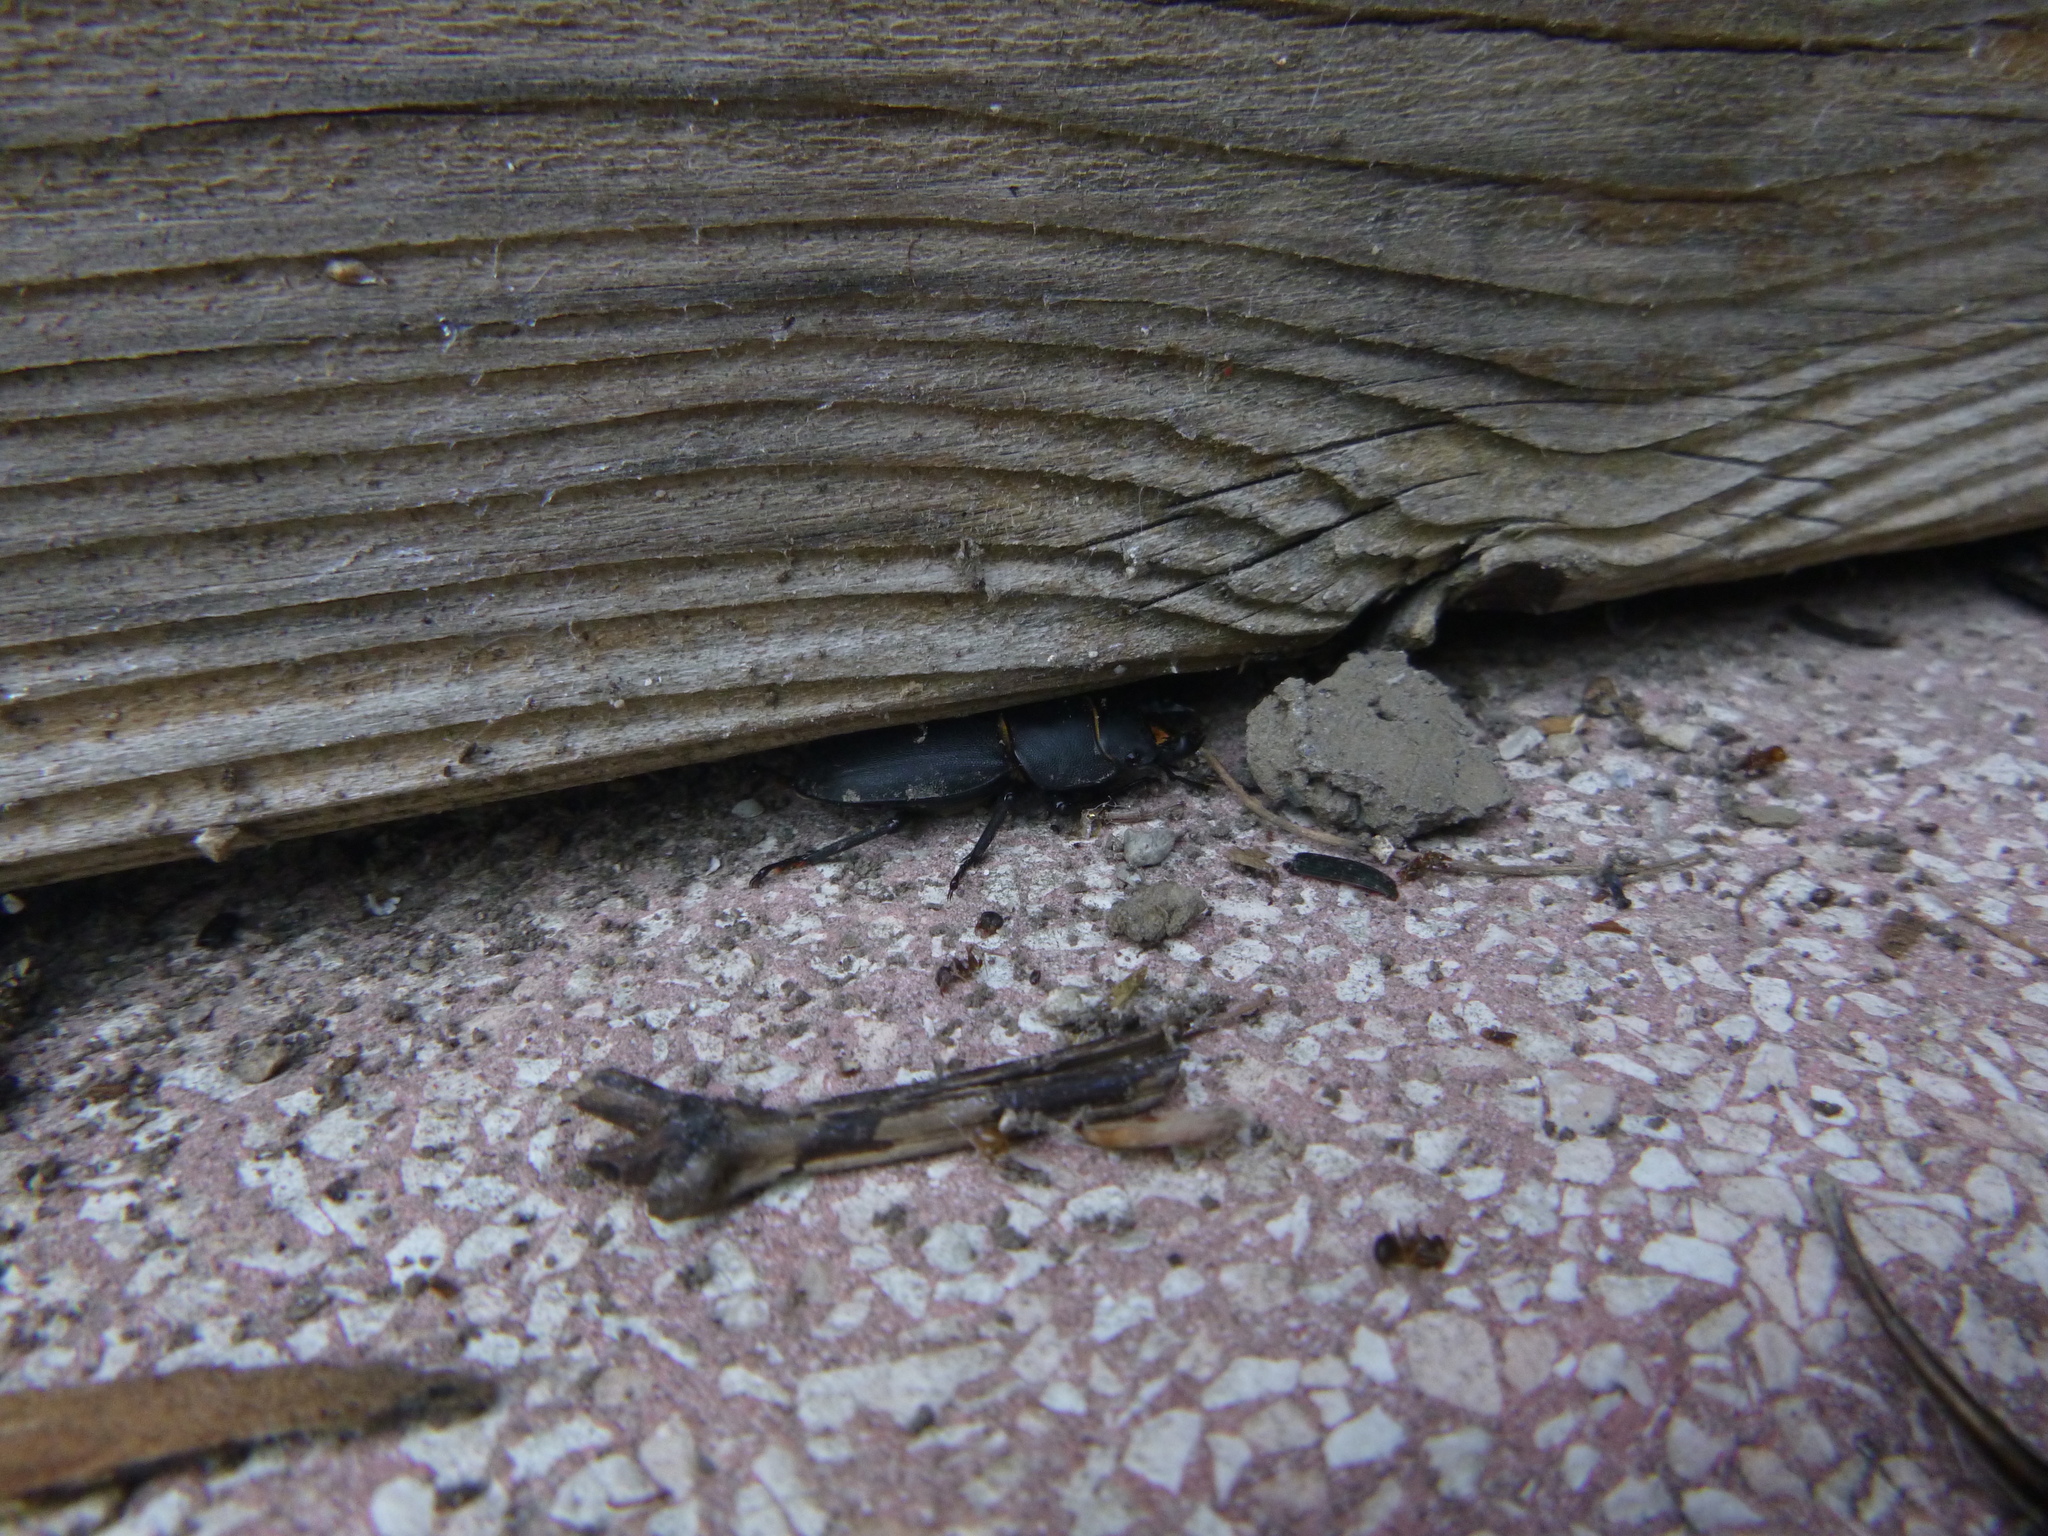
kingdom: Animalia
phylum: Arthropoda
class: Insecta
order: Coleoptera
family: Lucanidae
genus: Dorcus
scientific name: Dorcus parallelipipedus
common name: Lesser stag beetle
